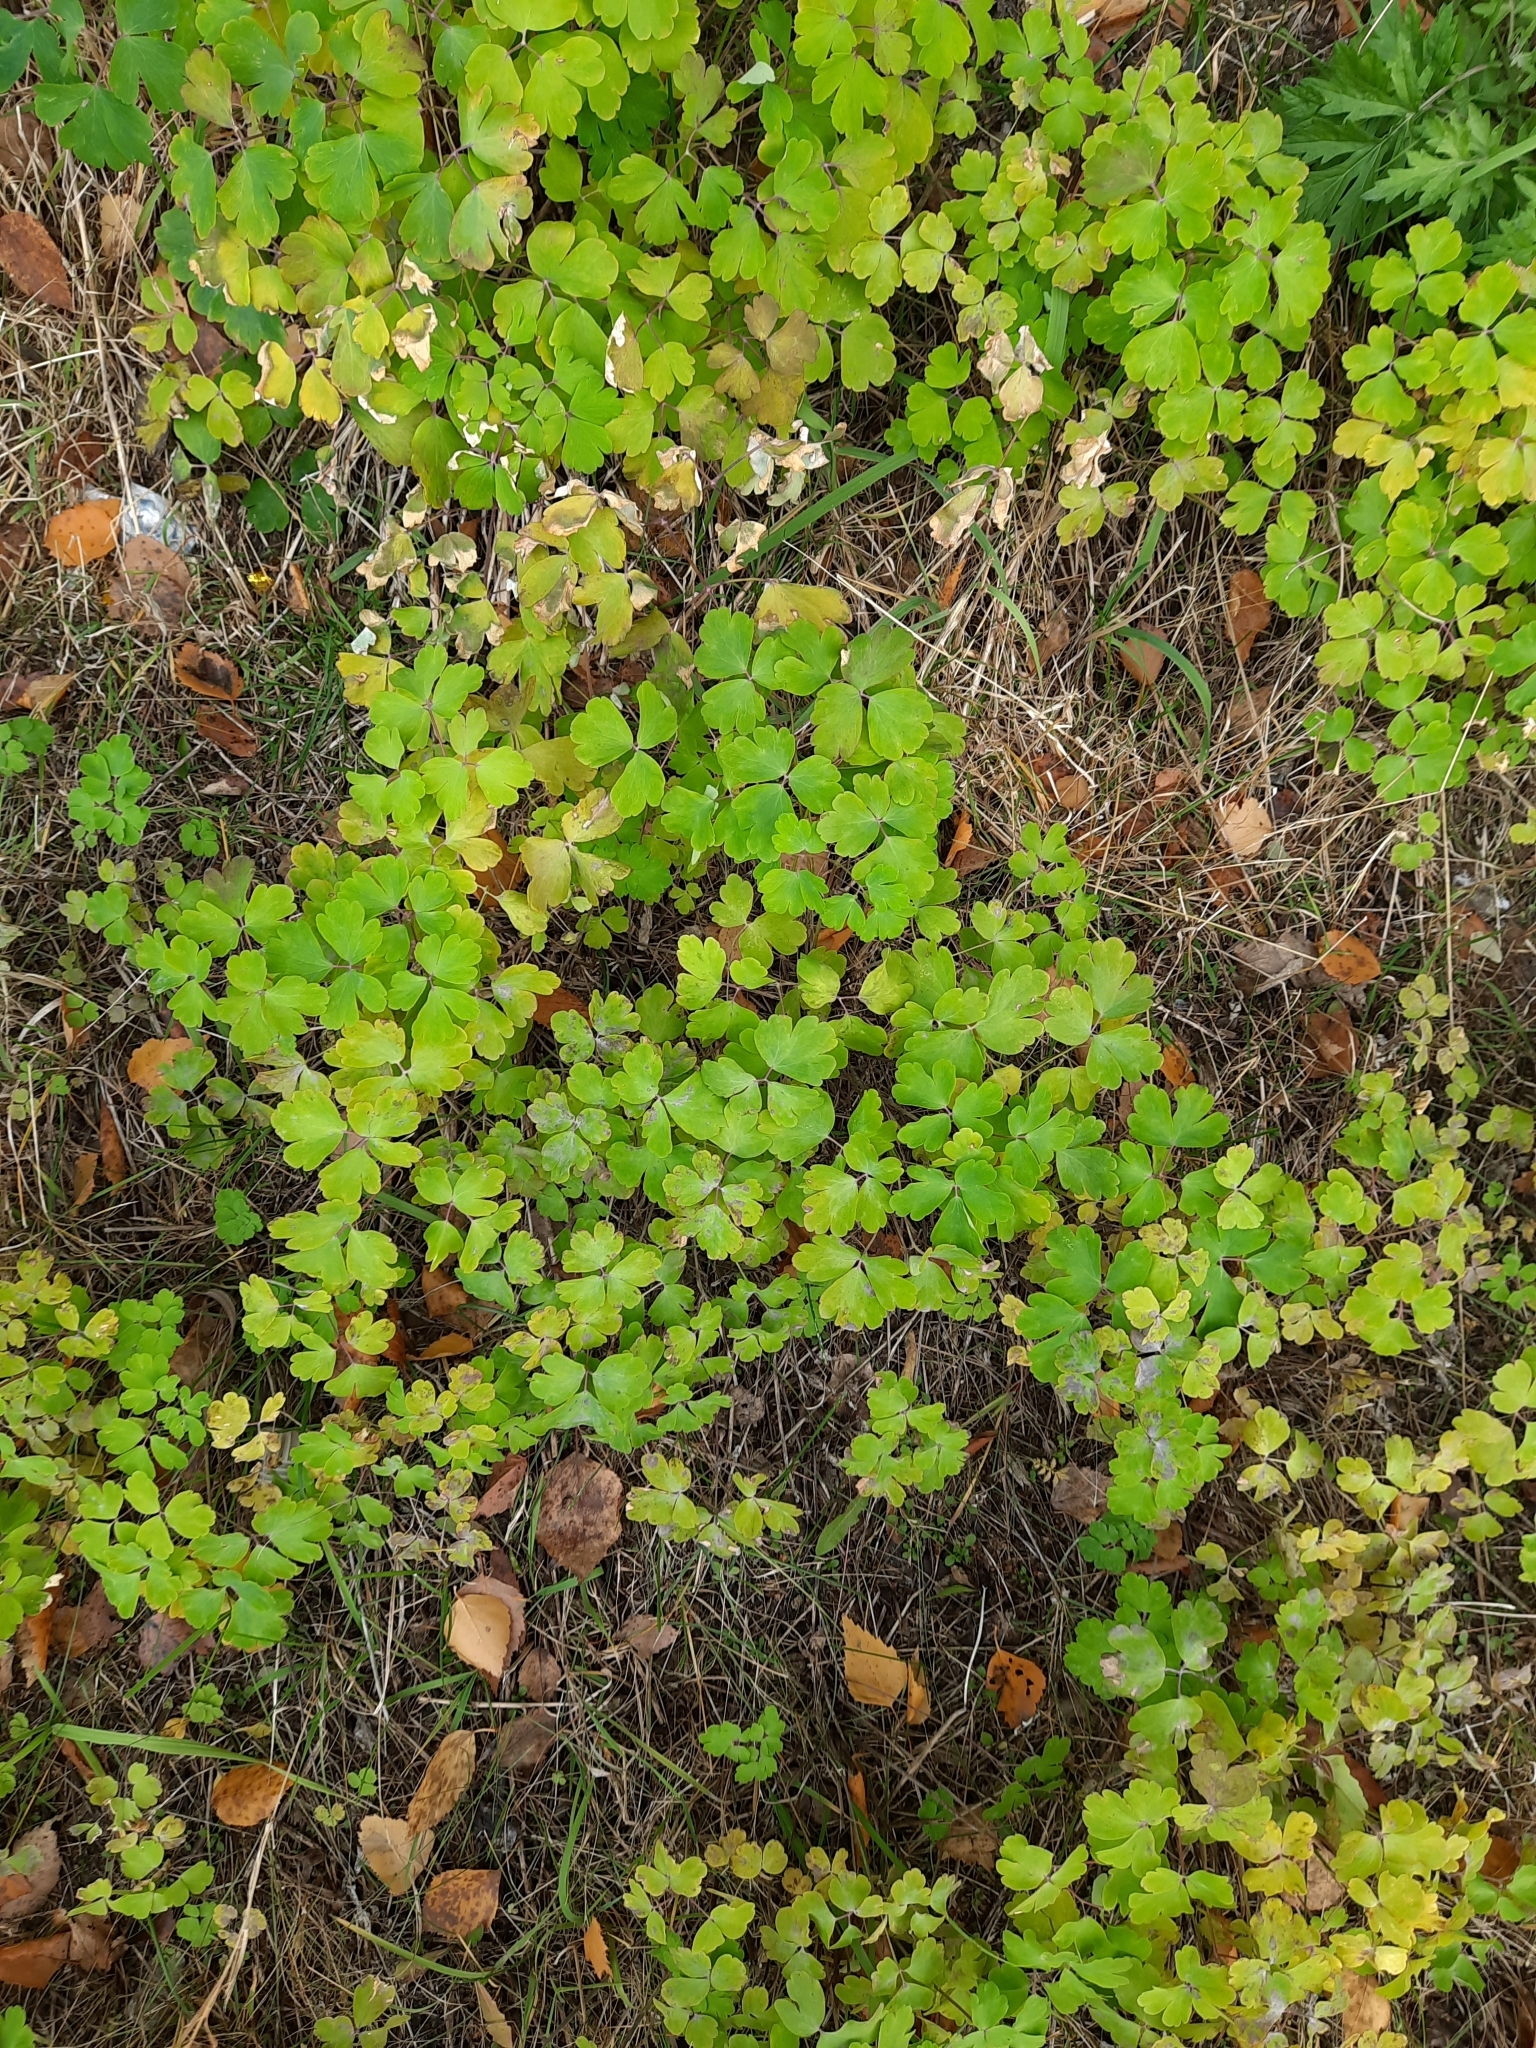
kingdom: Plantae
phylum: Tracheophyta
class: Magnoliopsida
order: Ranunculales
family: Ranunculaceae
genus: Aquilegia
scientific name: Aquilegia vulgaris
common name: Columbine
